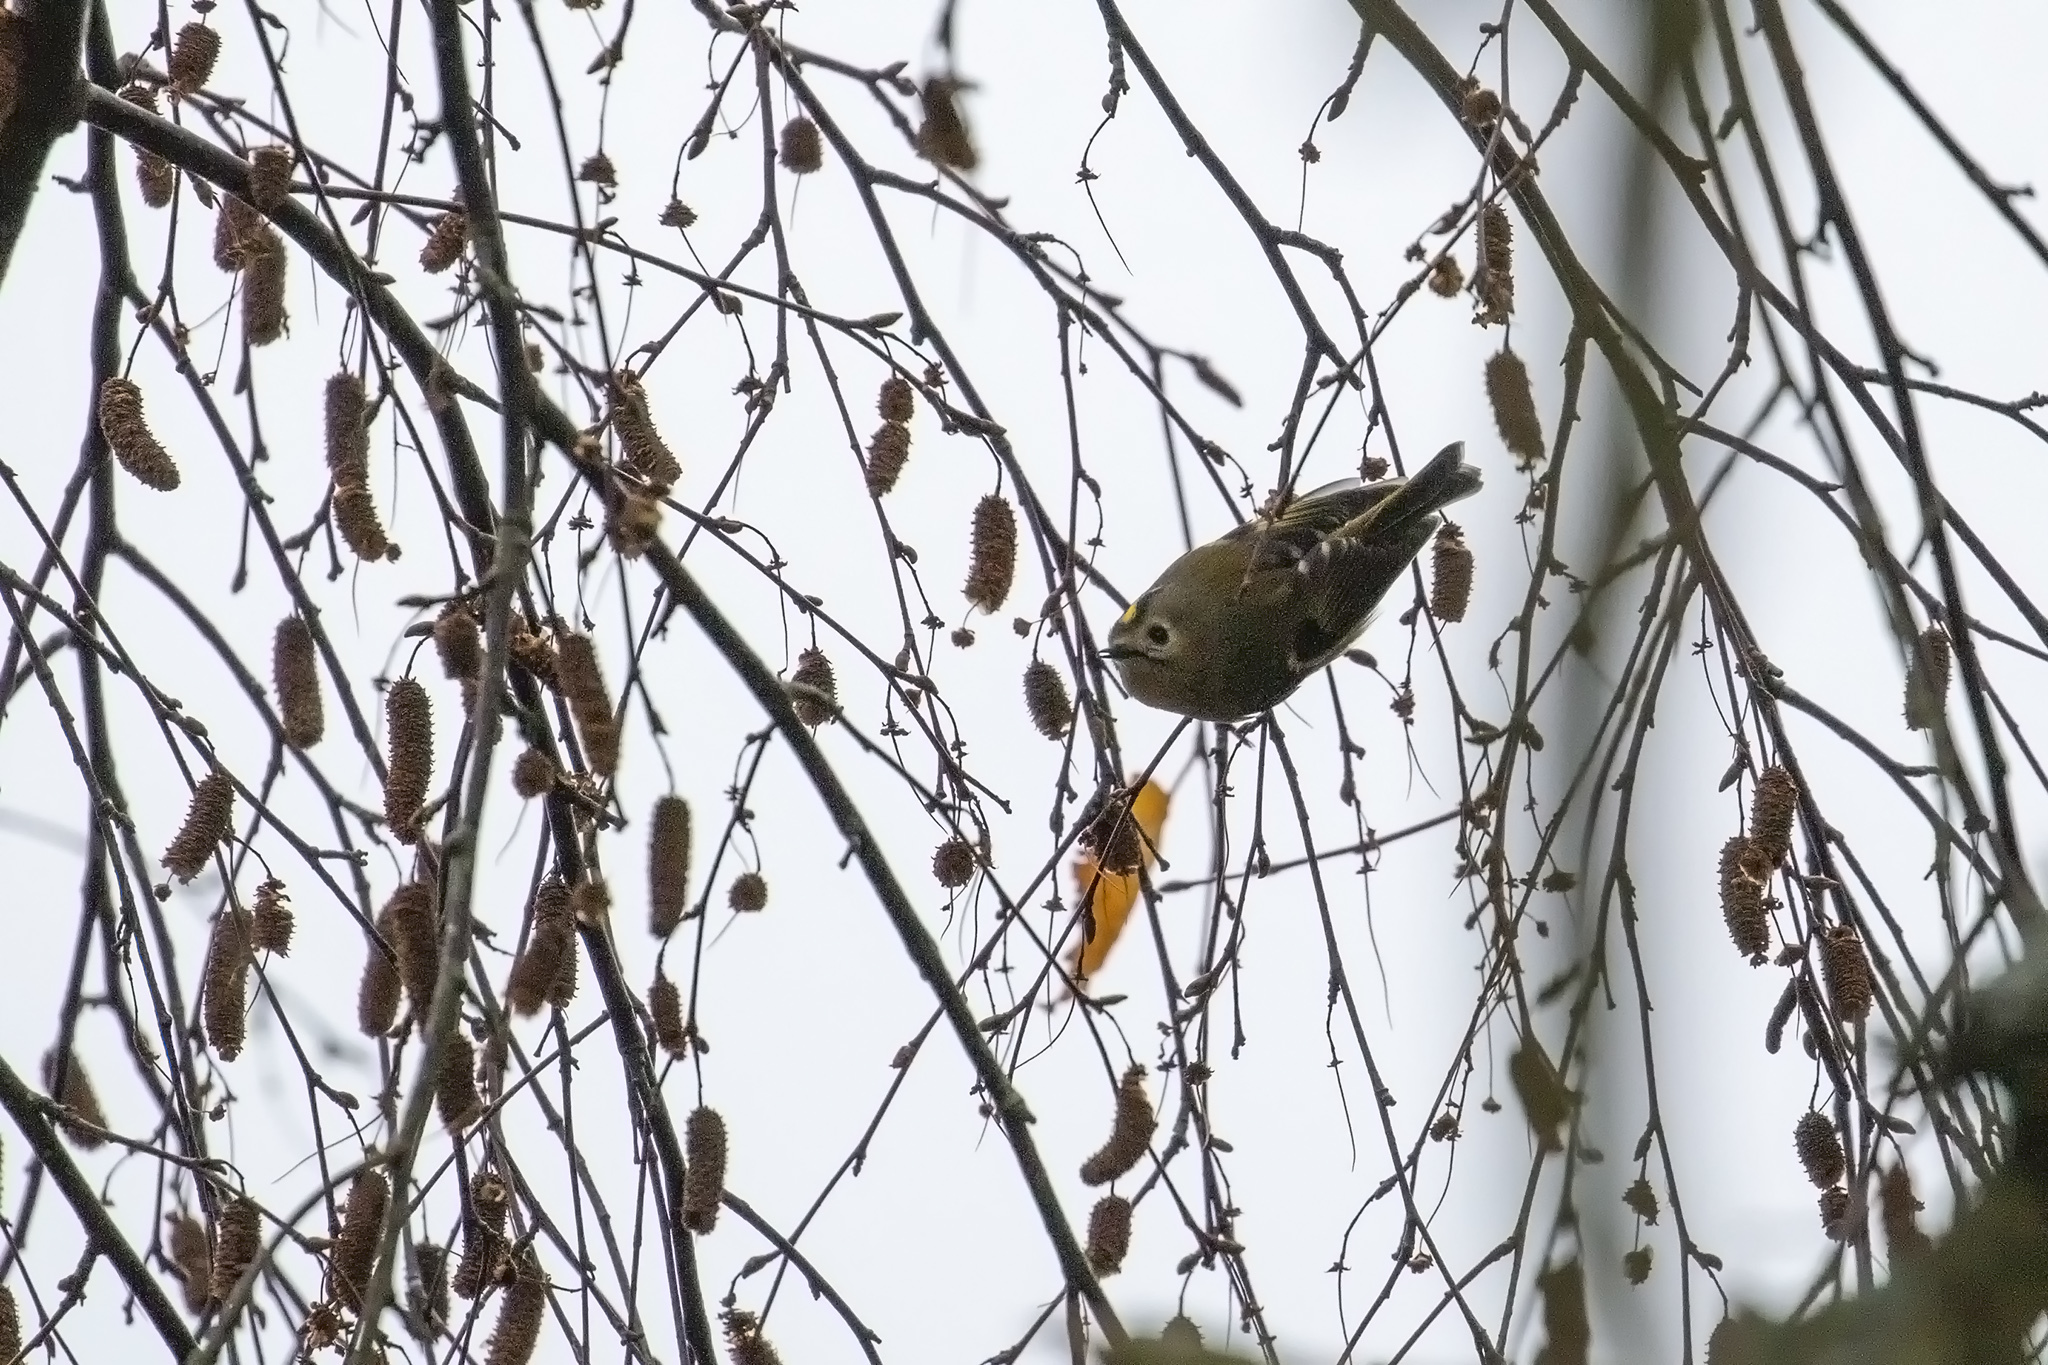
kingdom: Animalia
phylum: Chordata
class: Aves
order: Passeriformes
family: Regulidae
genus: Regulus
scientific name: Regulus regulus
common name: Goldcrest
